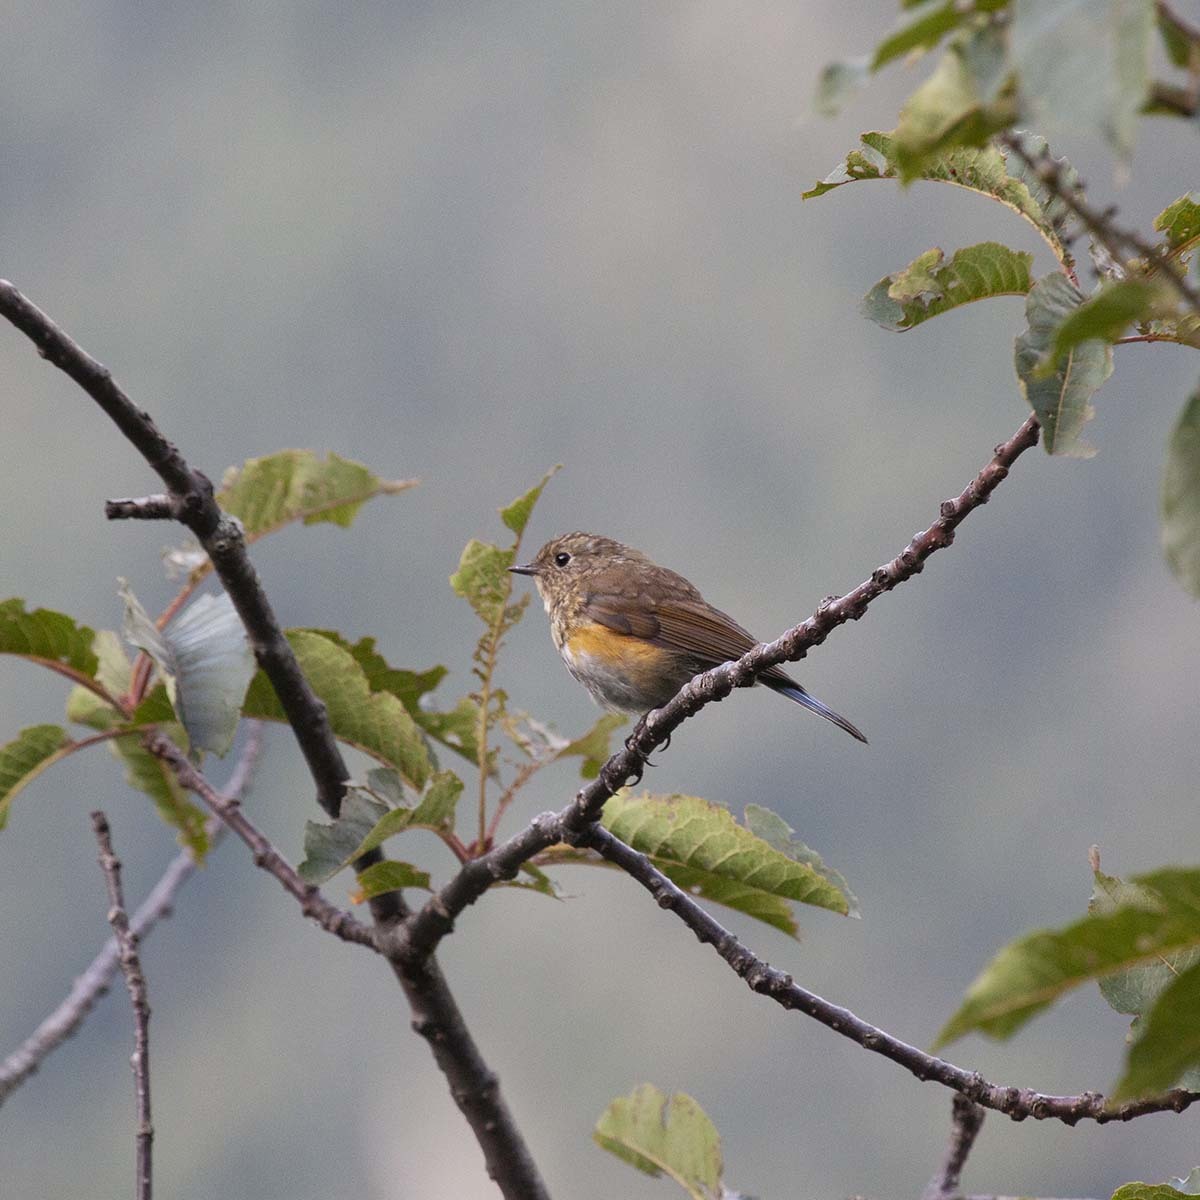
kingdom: Animalia
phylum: Chordata
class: Aves
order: Passeriformes
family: Muscicapidae
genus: Tarsiger
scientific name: Tarsiger rufilatus
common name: Himalayan bluetail
